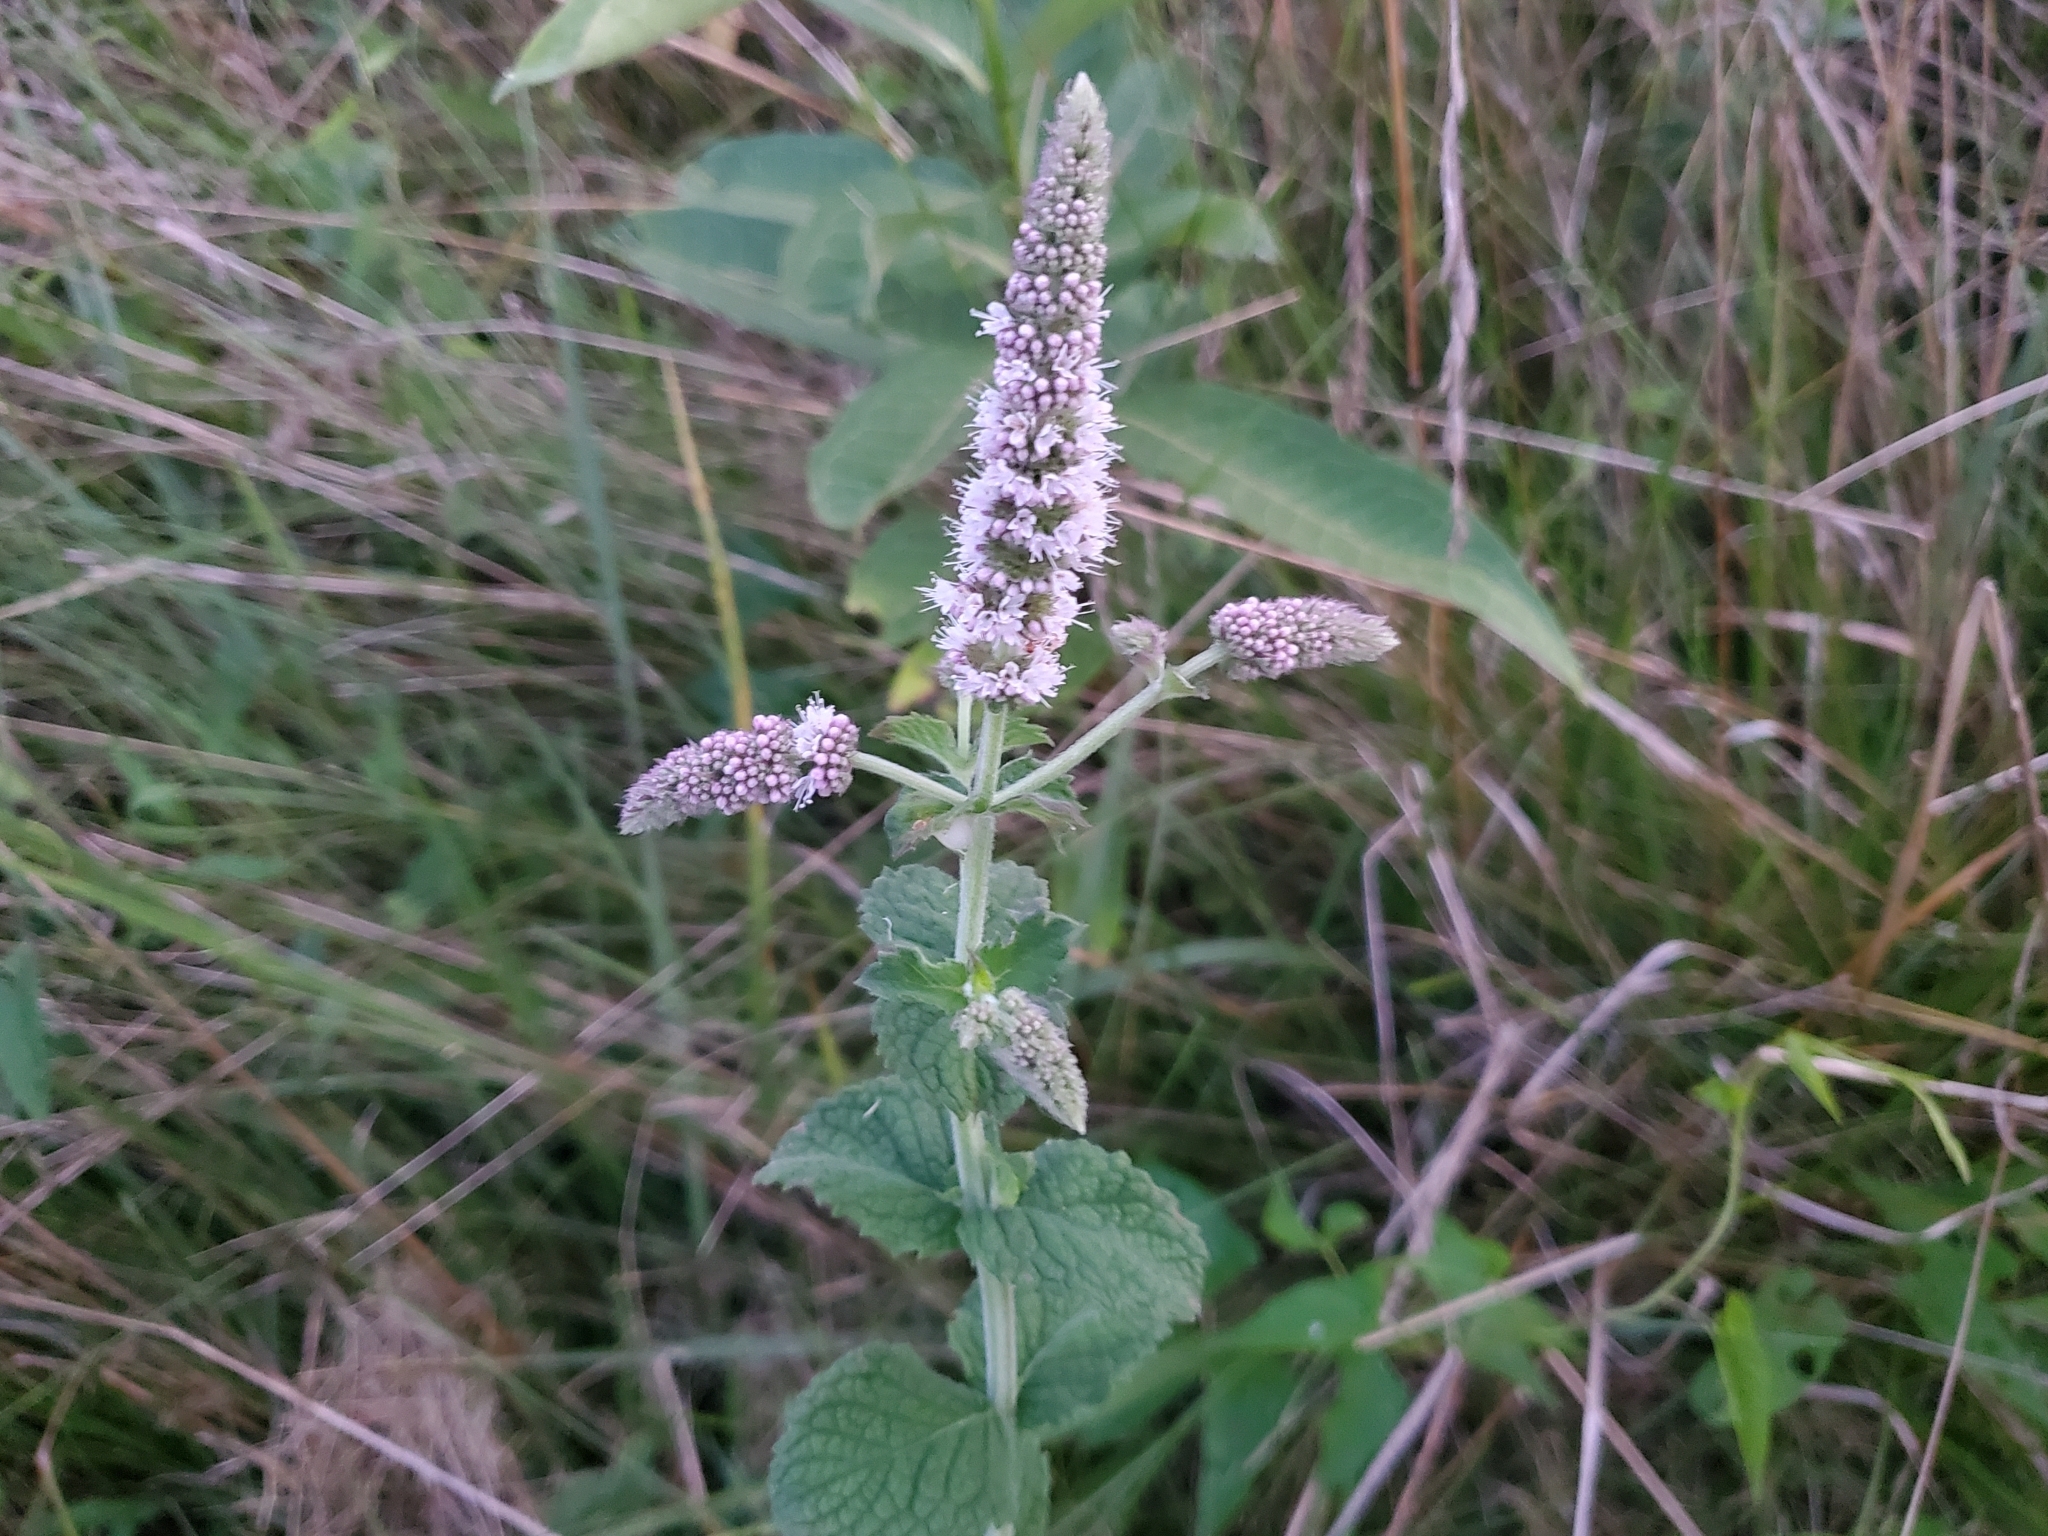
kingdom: Plantae
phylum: Tracheophyta
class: Magnoliopsida
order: Lamiales
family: Lamiaceae
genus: Mentha
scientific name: Mentha spicata
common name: Spearmint
